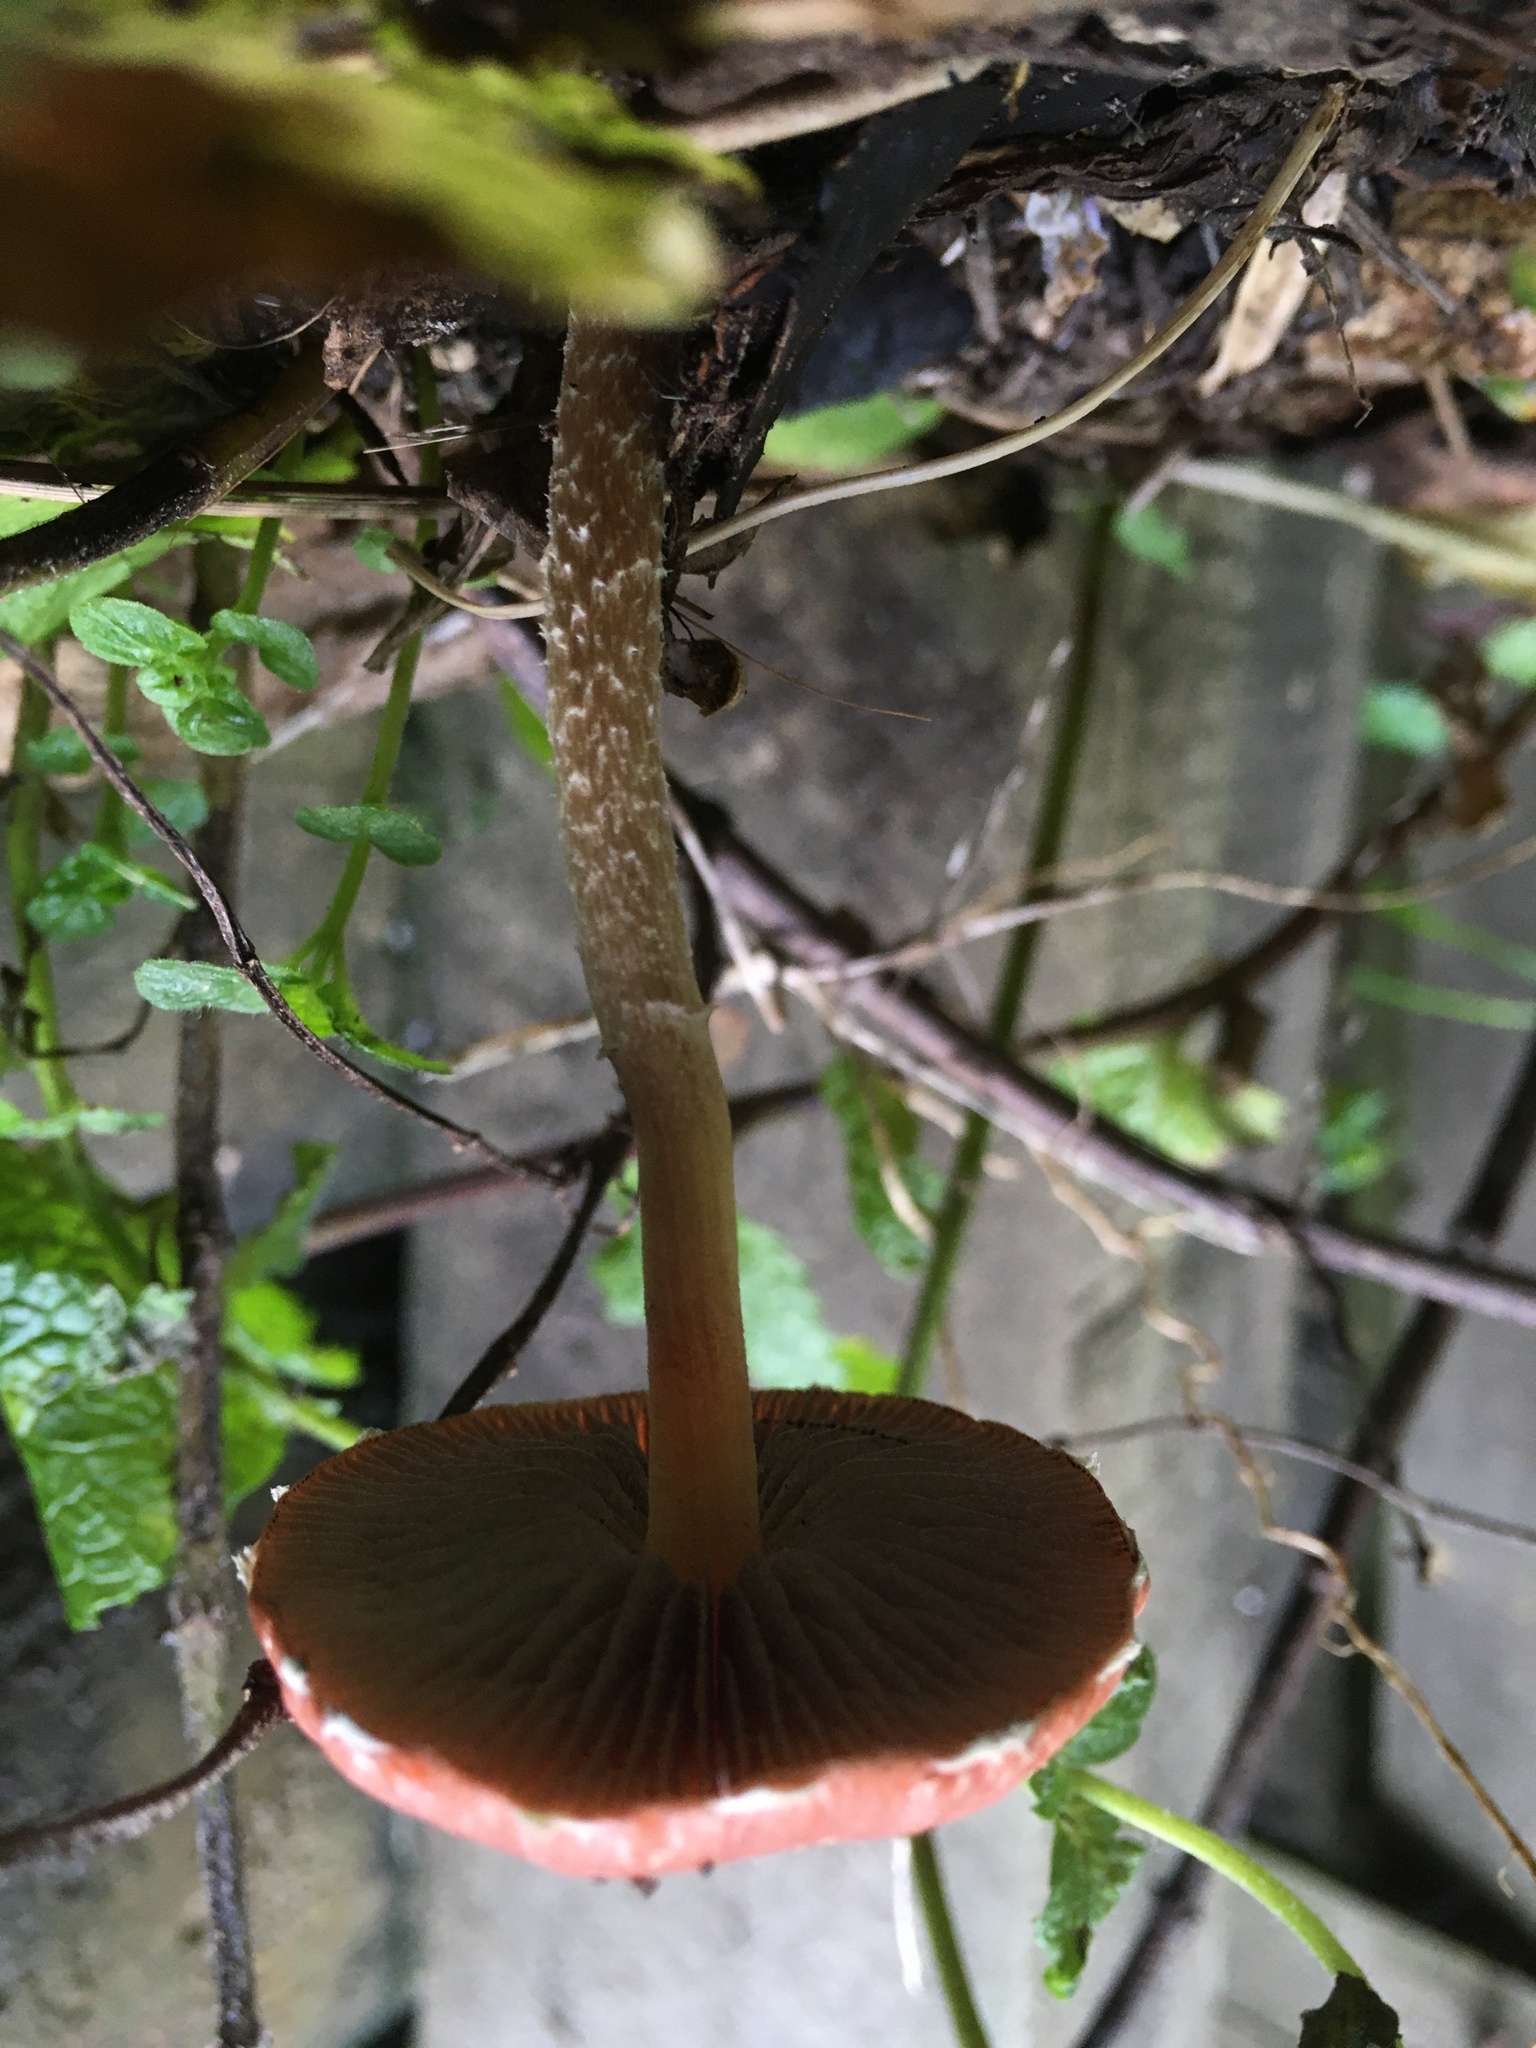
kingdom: Fungi
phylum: Basidiomycota
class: Agaricomycetes
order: Agaricales
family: Strophariaceae
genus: Leratiomyces
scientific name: Leratiomyces ceres
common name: Redlead roundhead
